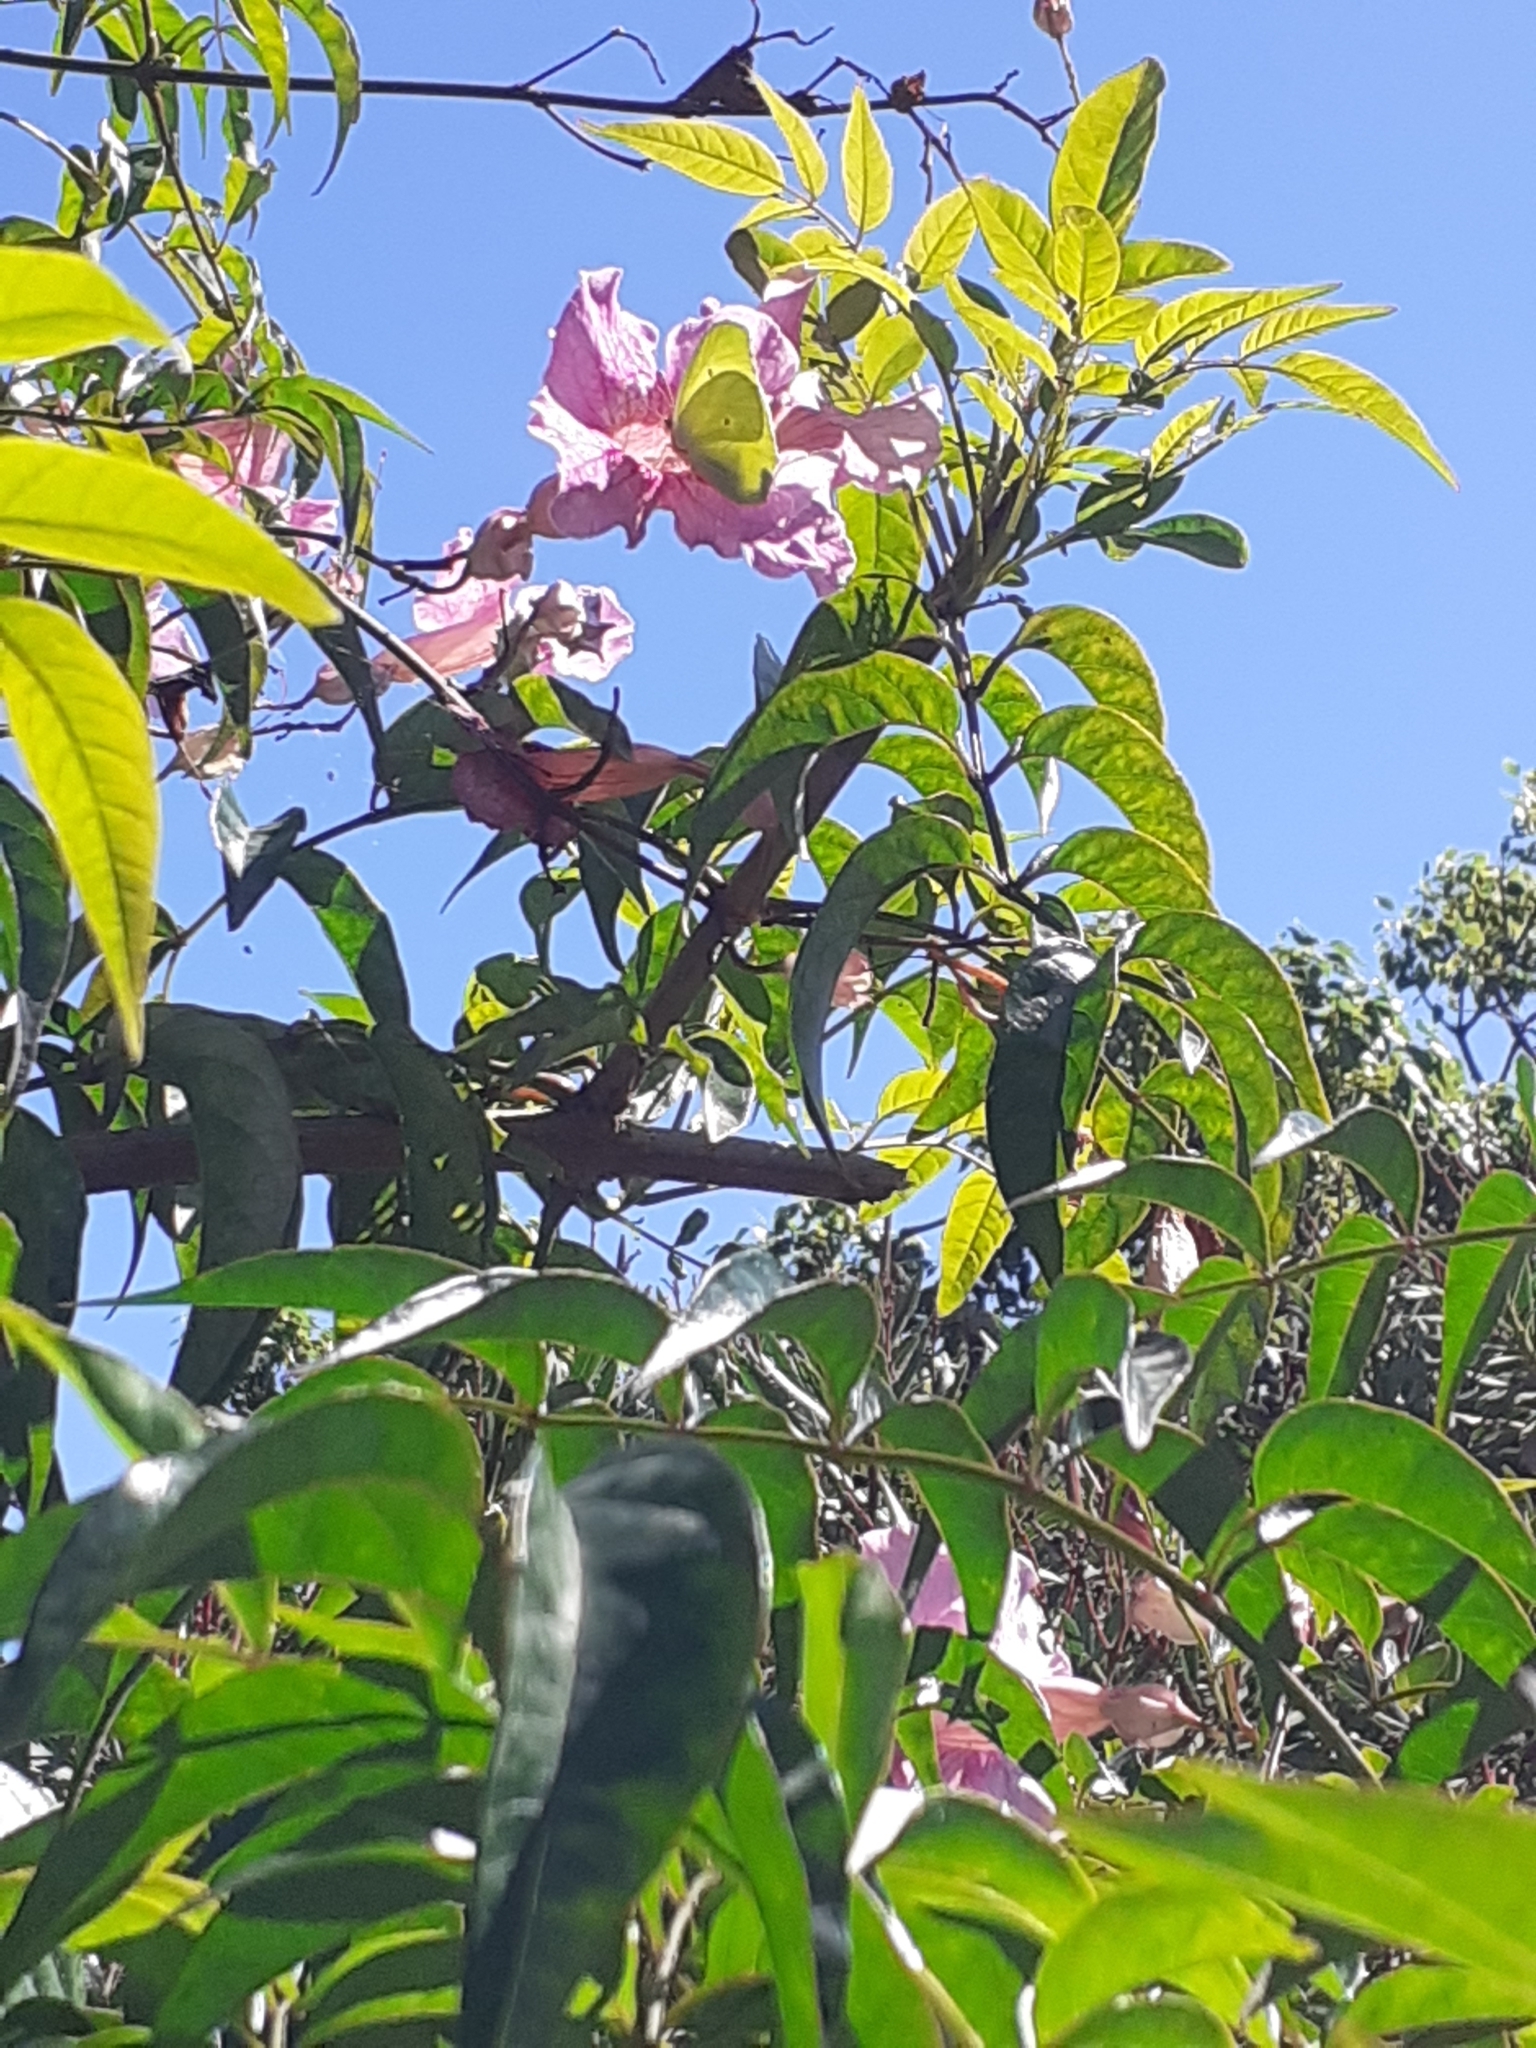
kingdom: Animalia
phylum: Arthropoda
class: Insecta
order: Lepidoptera
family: Pieridae
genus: Gonepteryx
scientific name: Gonepteryx cleobule
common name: Canary brimstone
